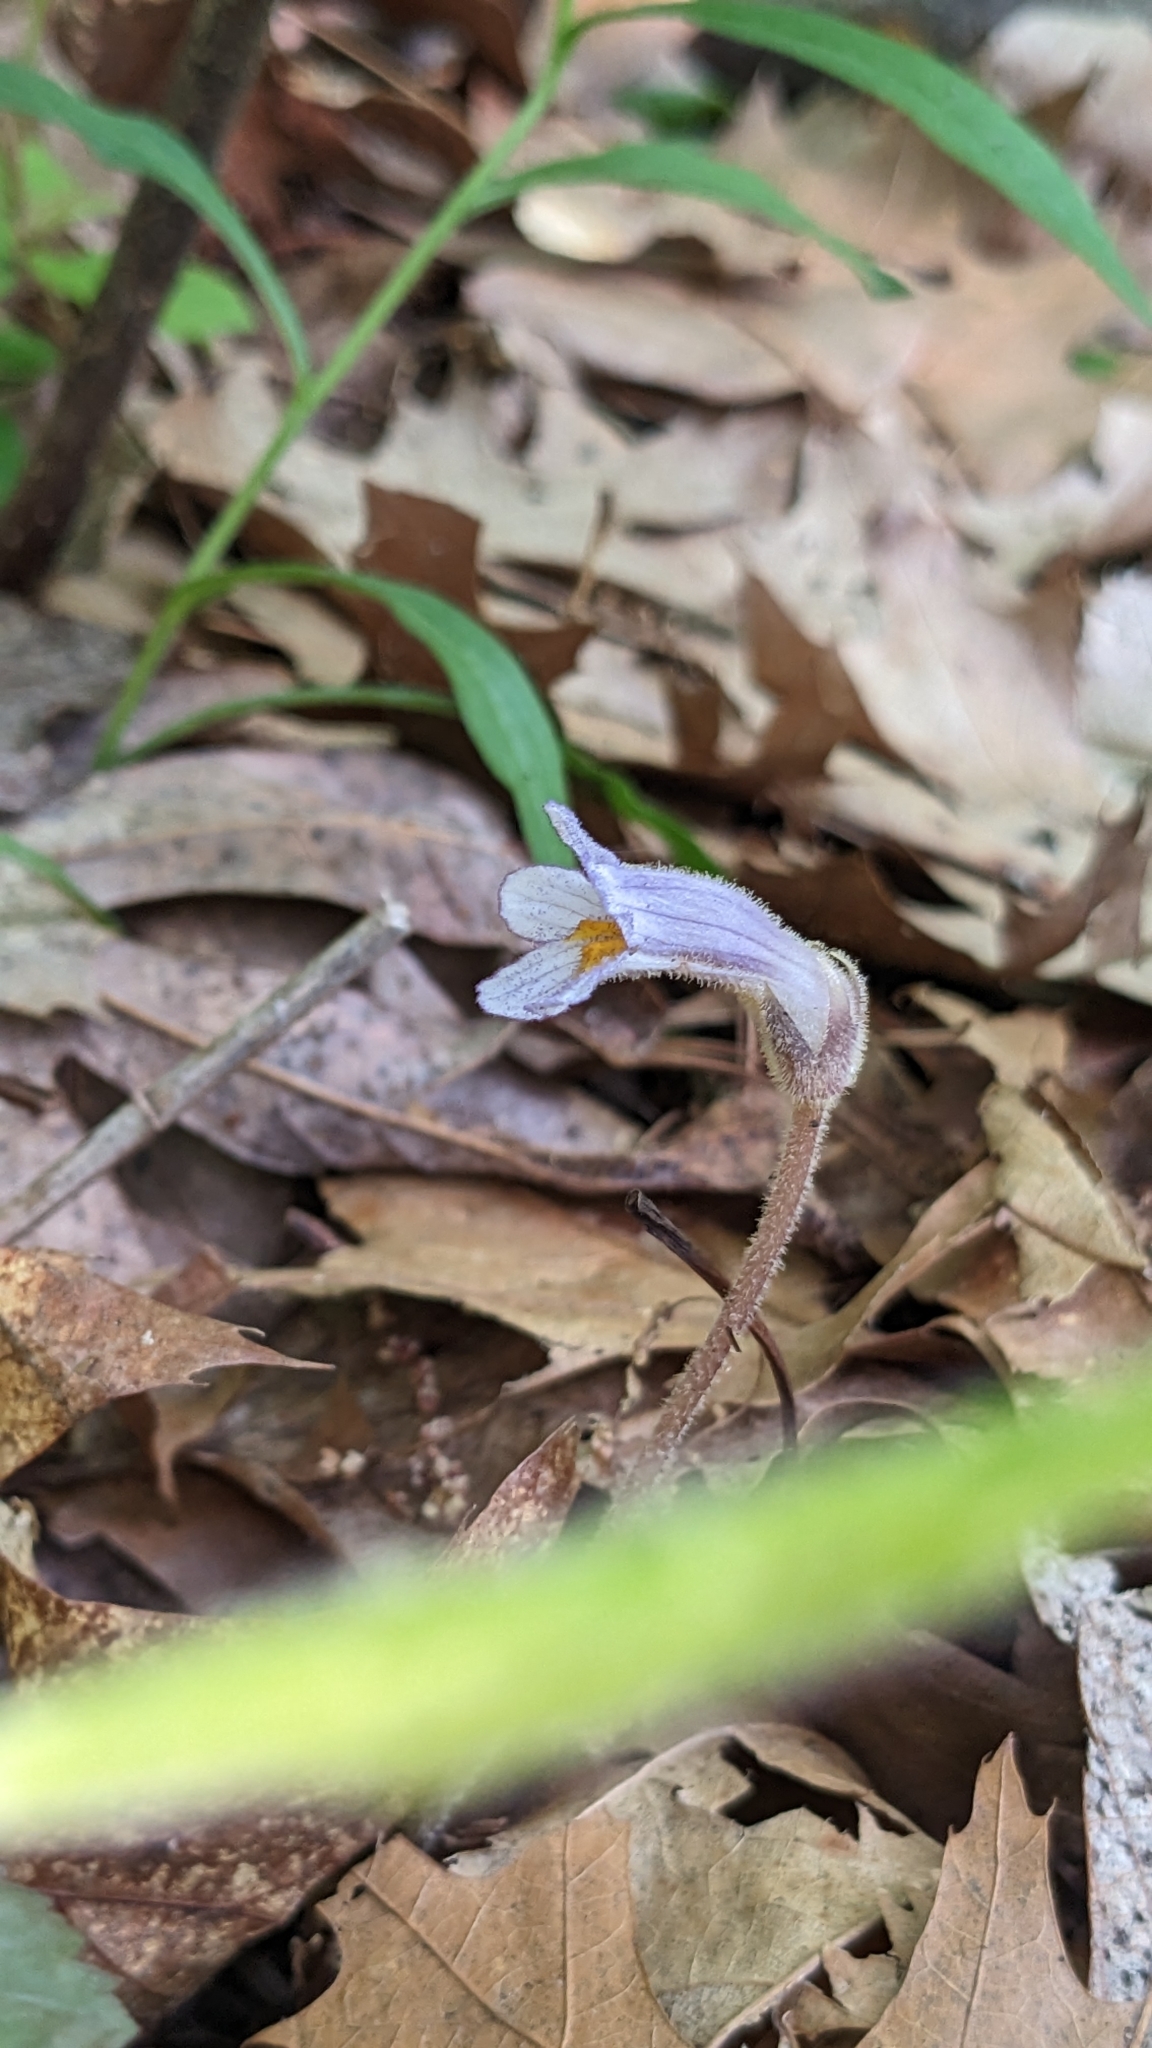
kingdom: Plantae
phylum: Tracheophyta
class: Magnoliopsida
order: Lamiales
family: Orobanchaceae
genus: Aphyllon
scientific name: Aphyllon uniflorum
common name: One-flowered broomrape
